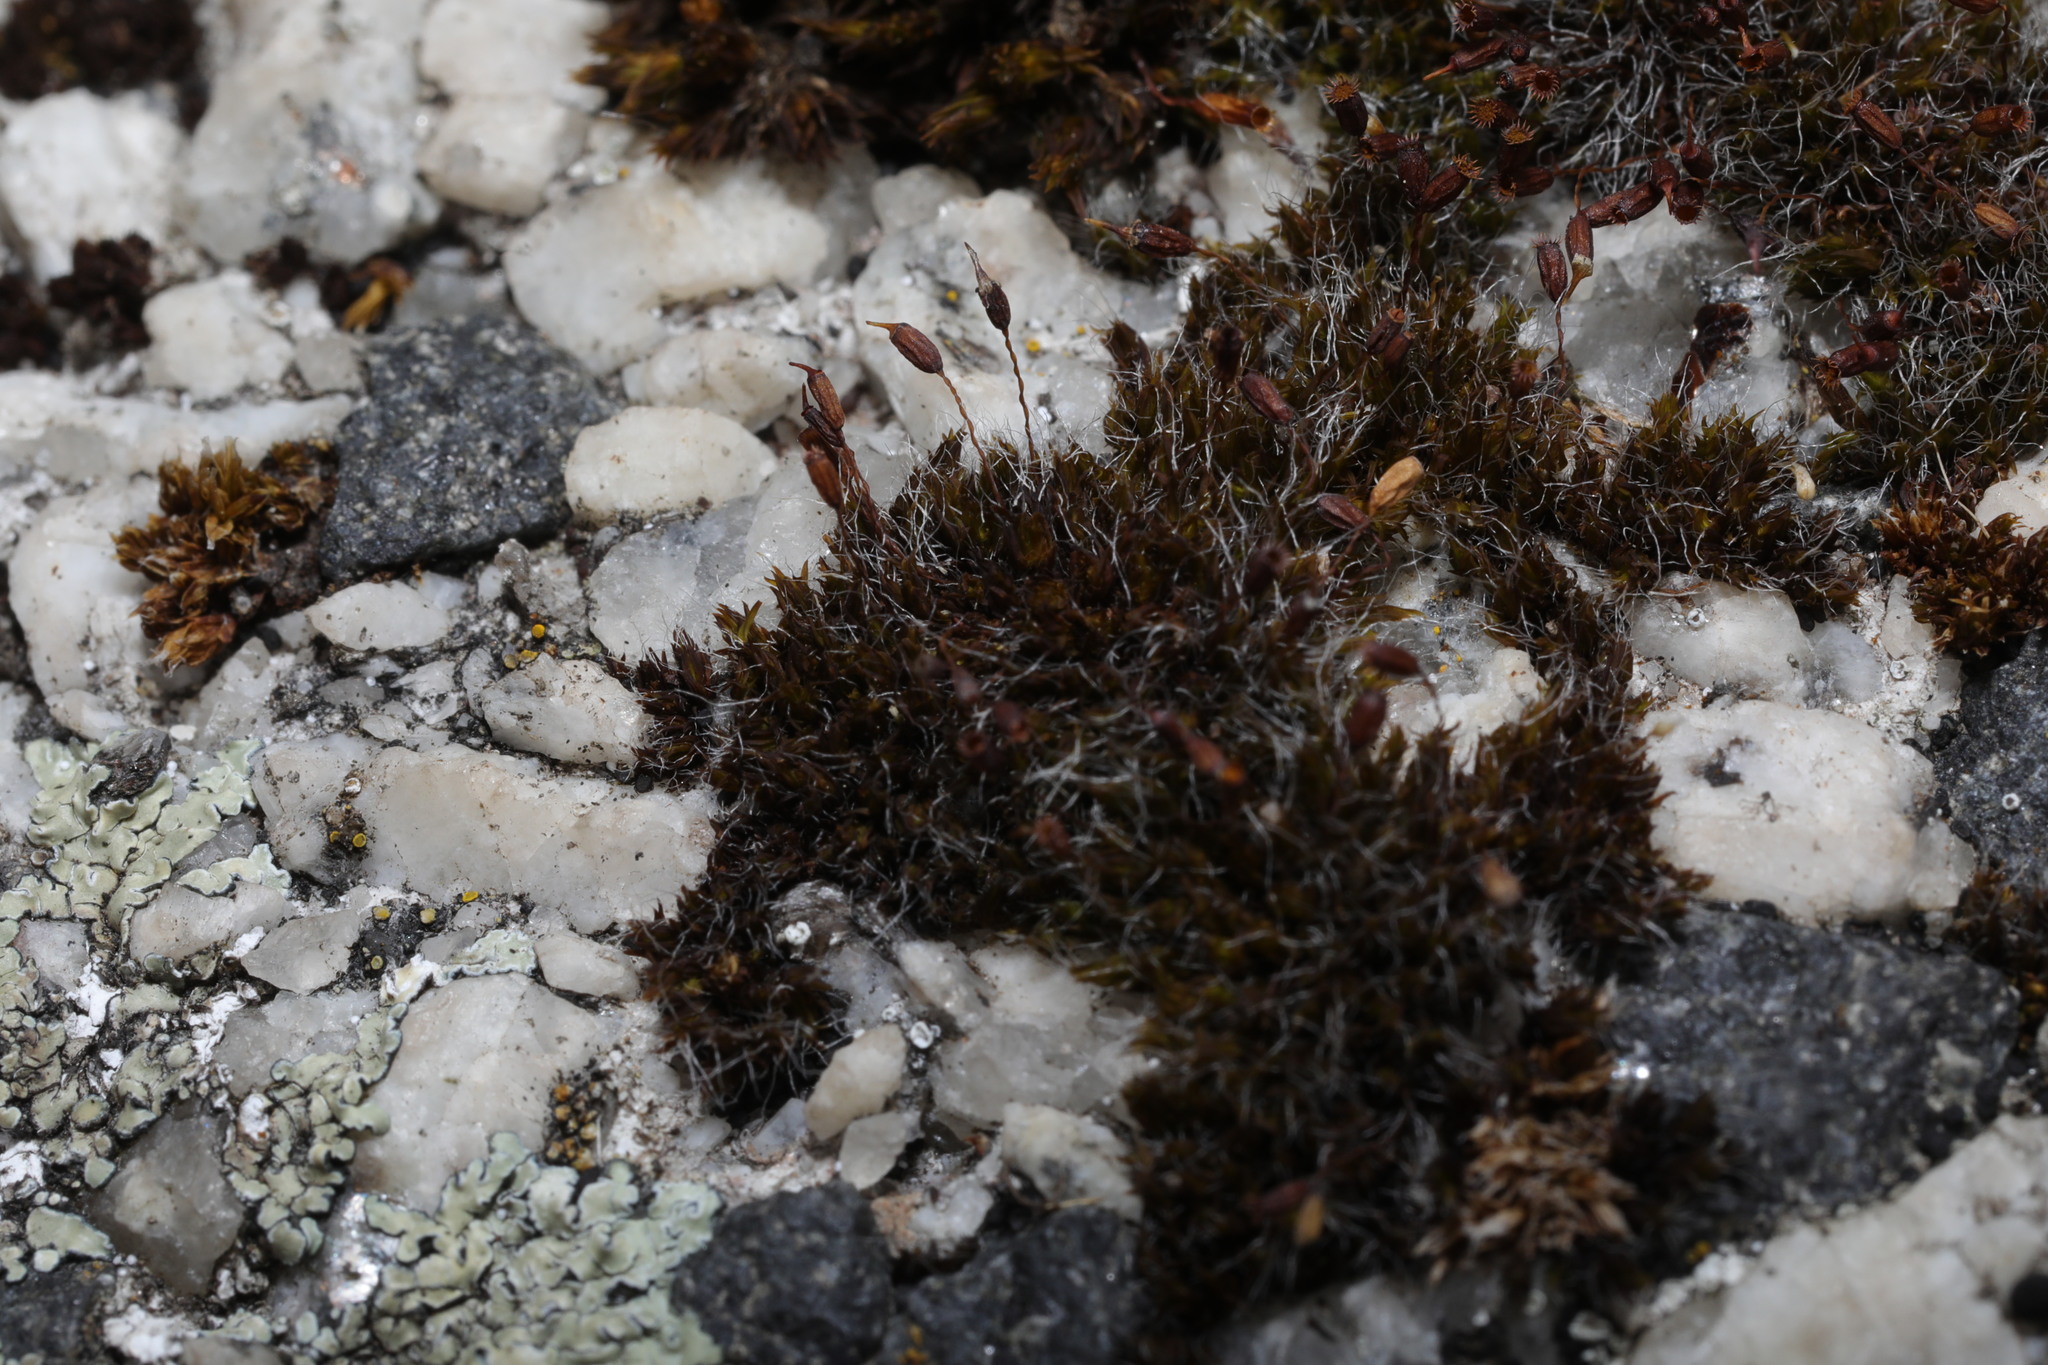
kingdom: Plantae
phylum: Bryophyta
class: Bryopsida
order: Grimmiales
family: Grimmiaceae
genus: Grimmia
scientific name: Grimmia pulvinata
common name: Grey-cushioned grimmia
